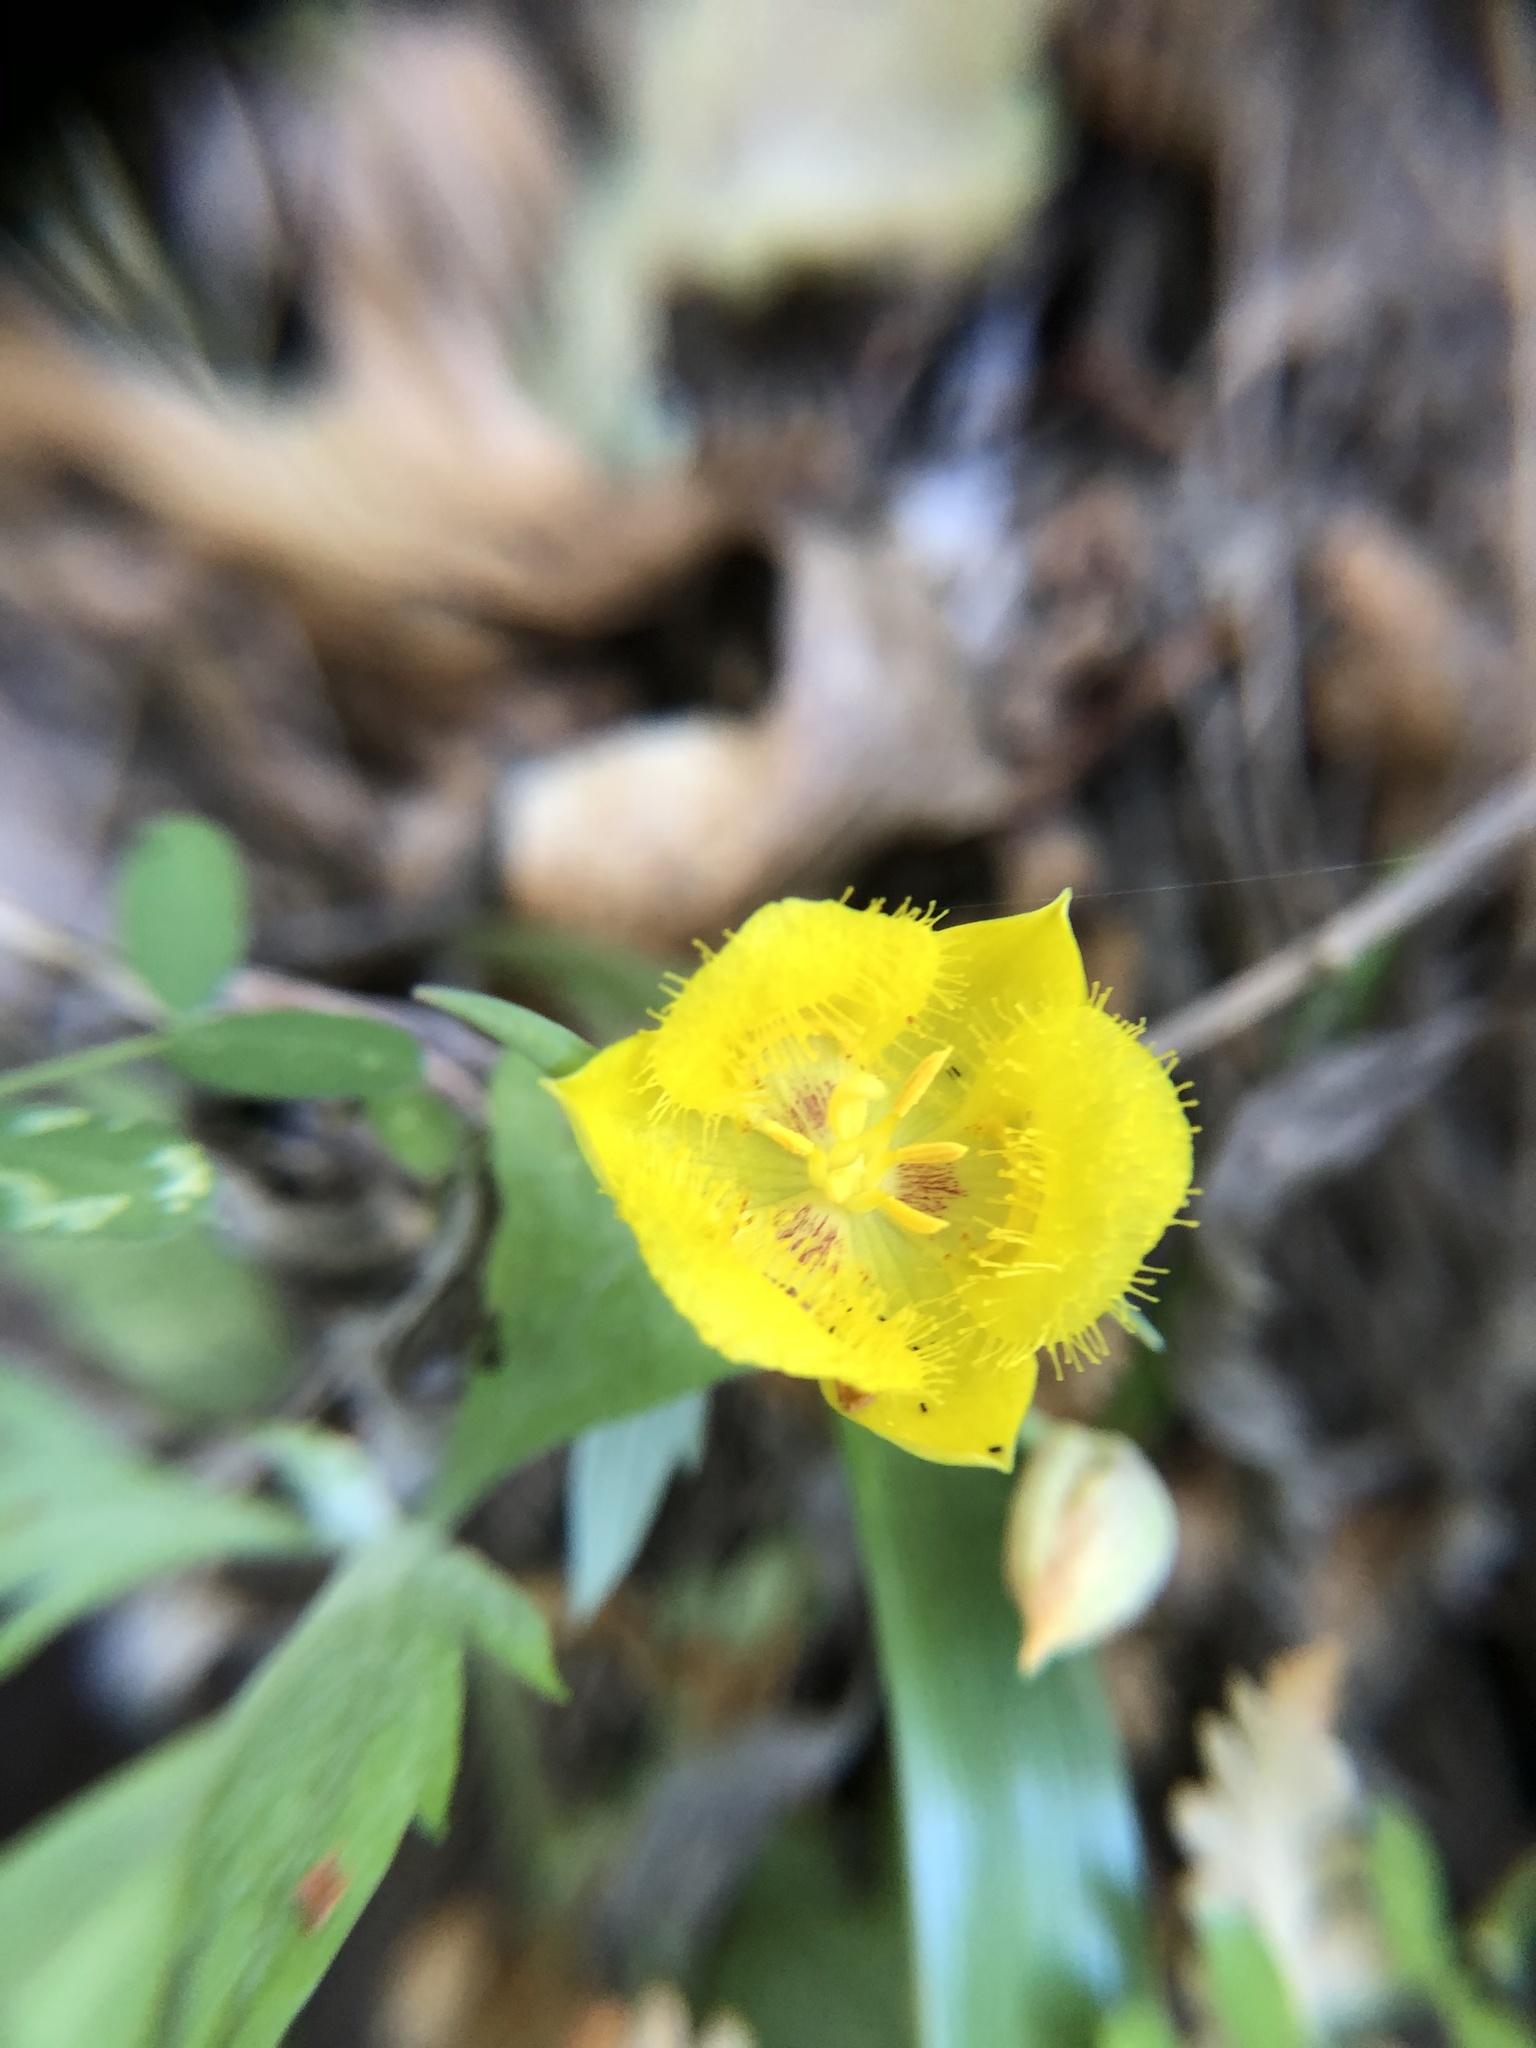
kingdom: Plantae
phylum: Tracheophyta
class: Liliopsida
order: Liliales
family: Liliaceae
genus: Calochortus
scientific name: Calochortus monophyllus
